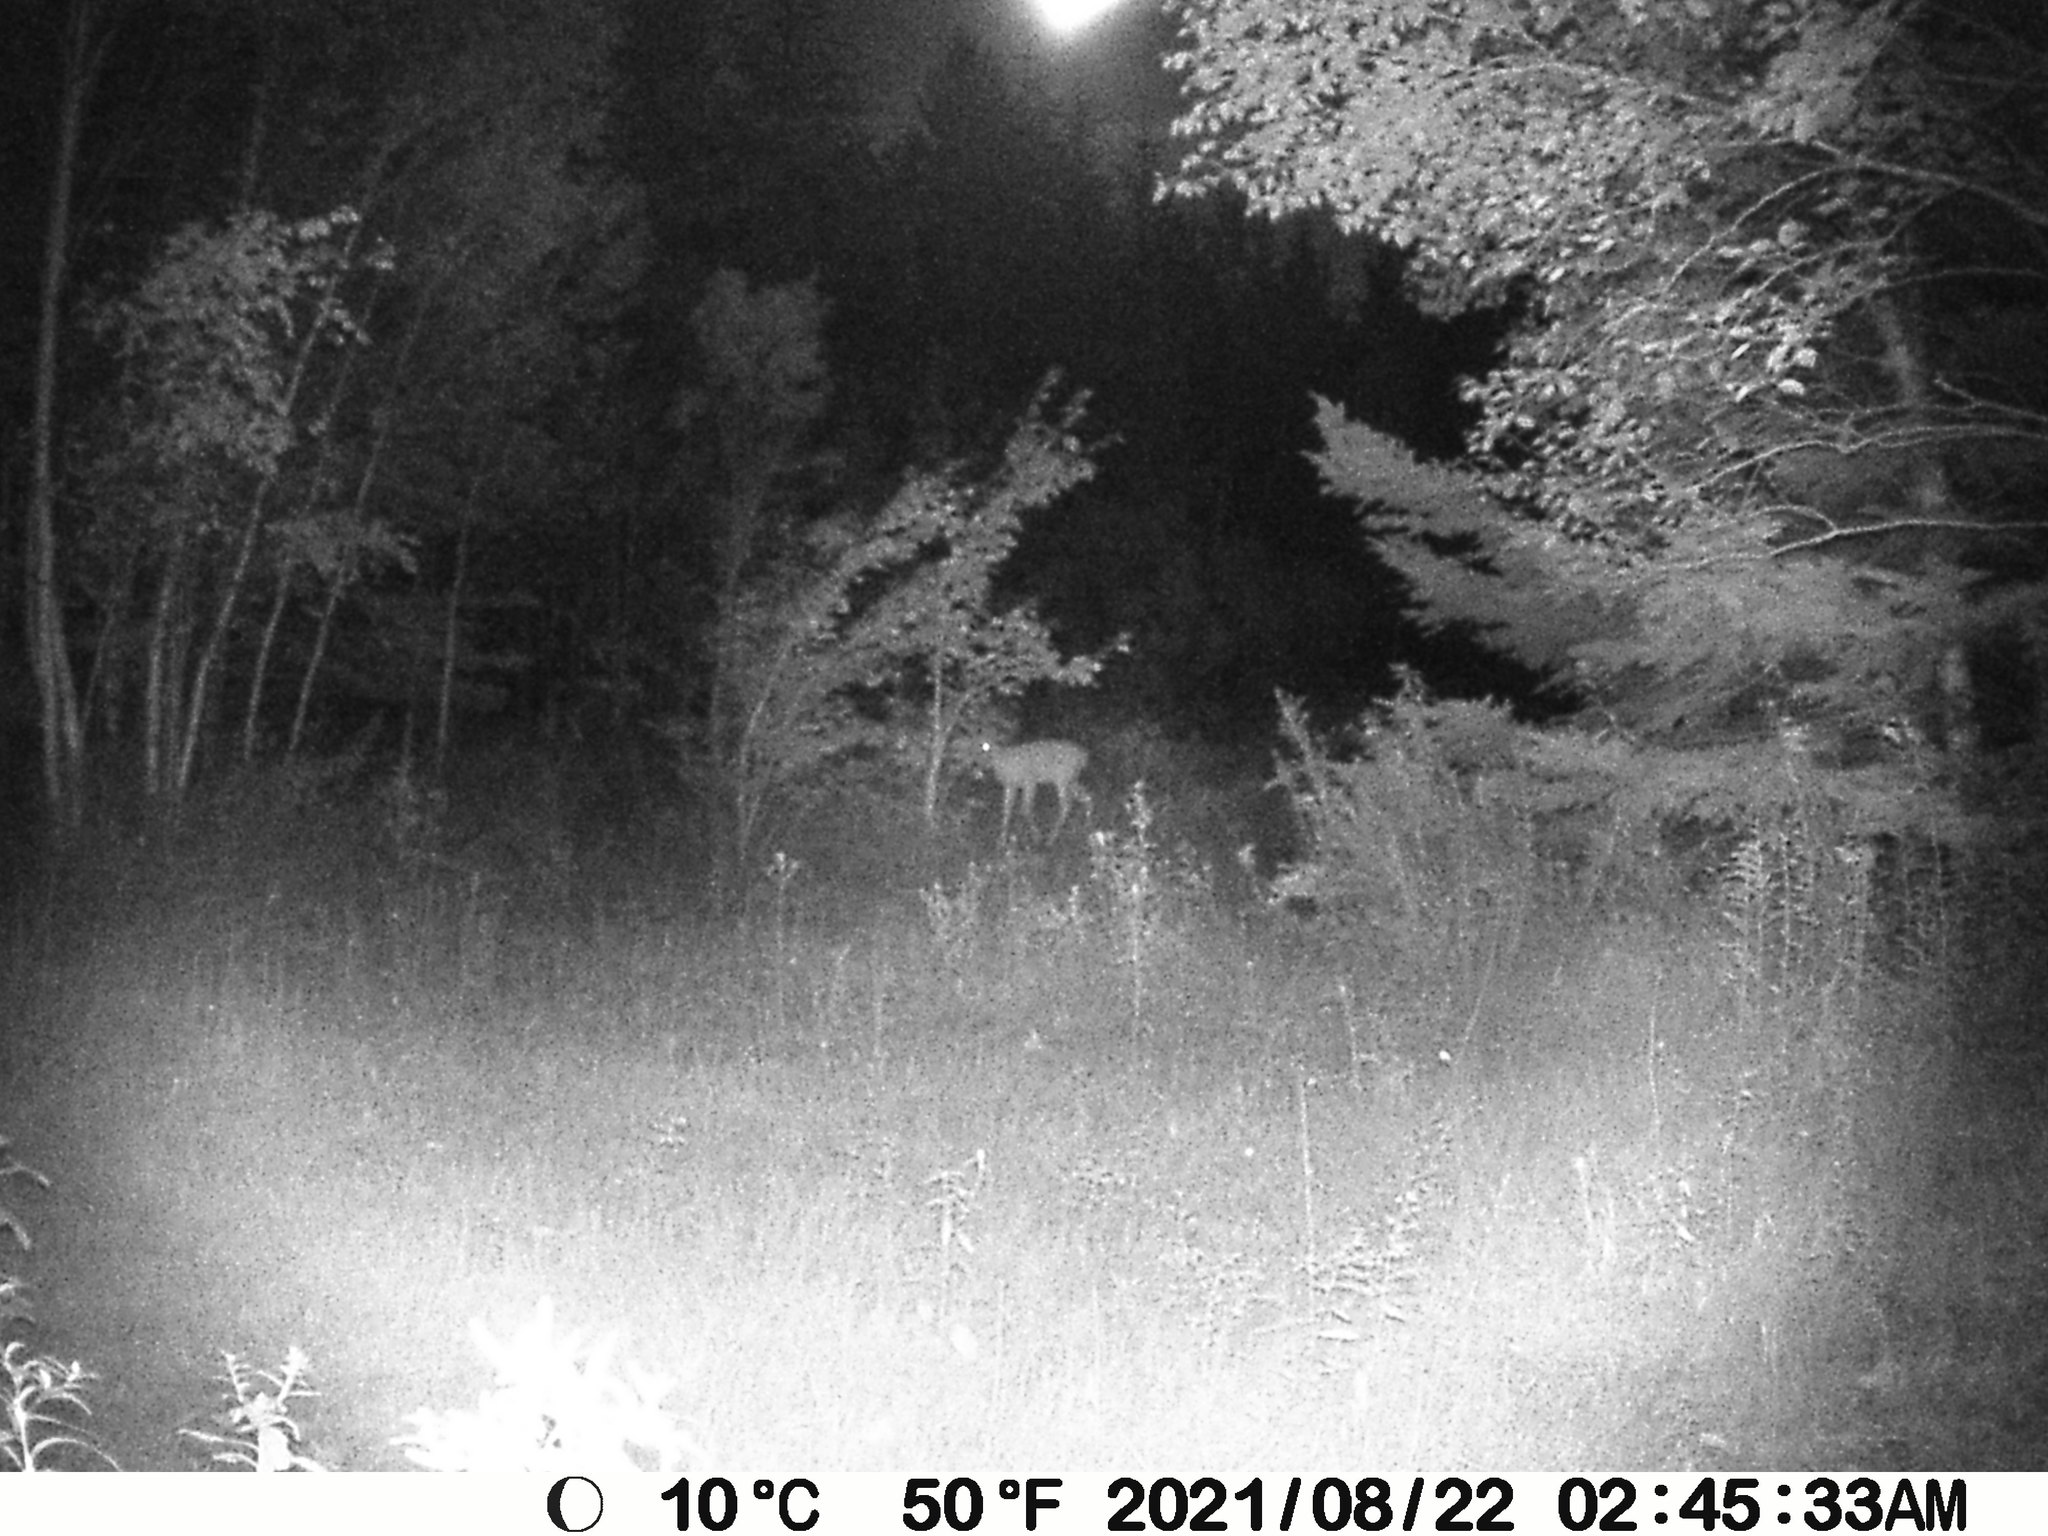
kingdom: Animalia
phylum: Chordata
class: Mammalia
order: Artiodactyla
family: Cervidae
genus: Odocoileus
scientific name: Odocoileus virginianus
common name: White-tailed deer
